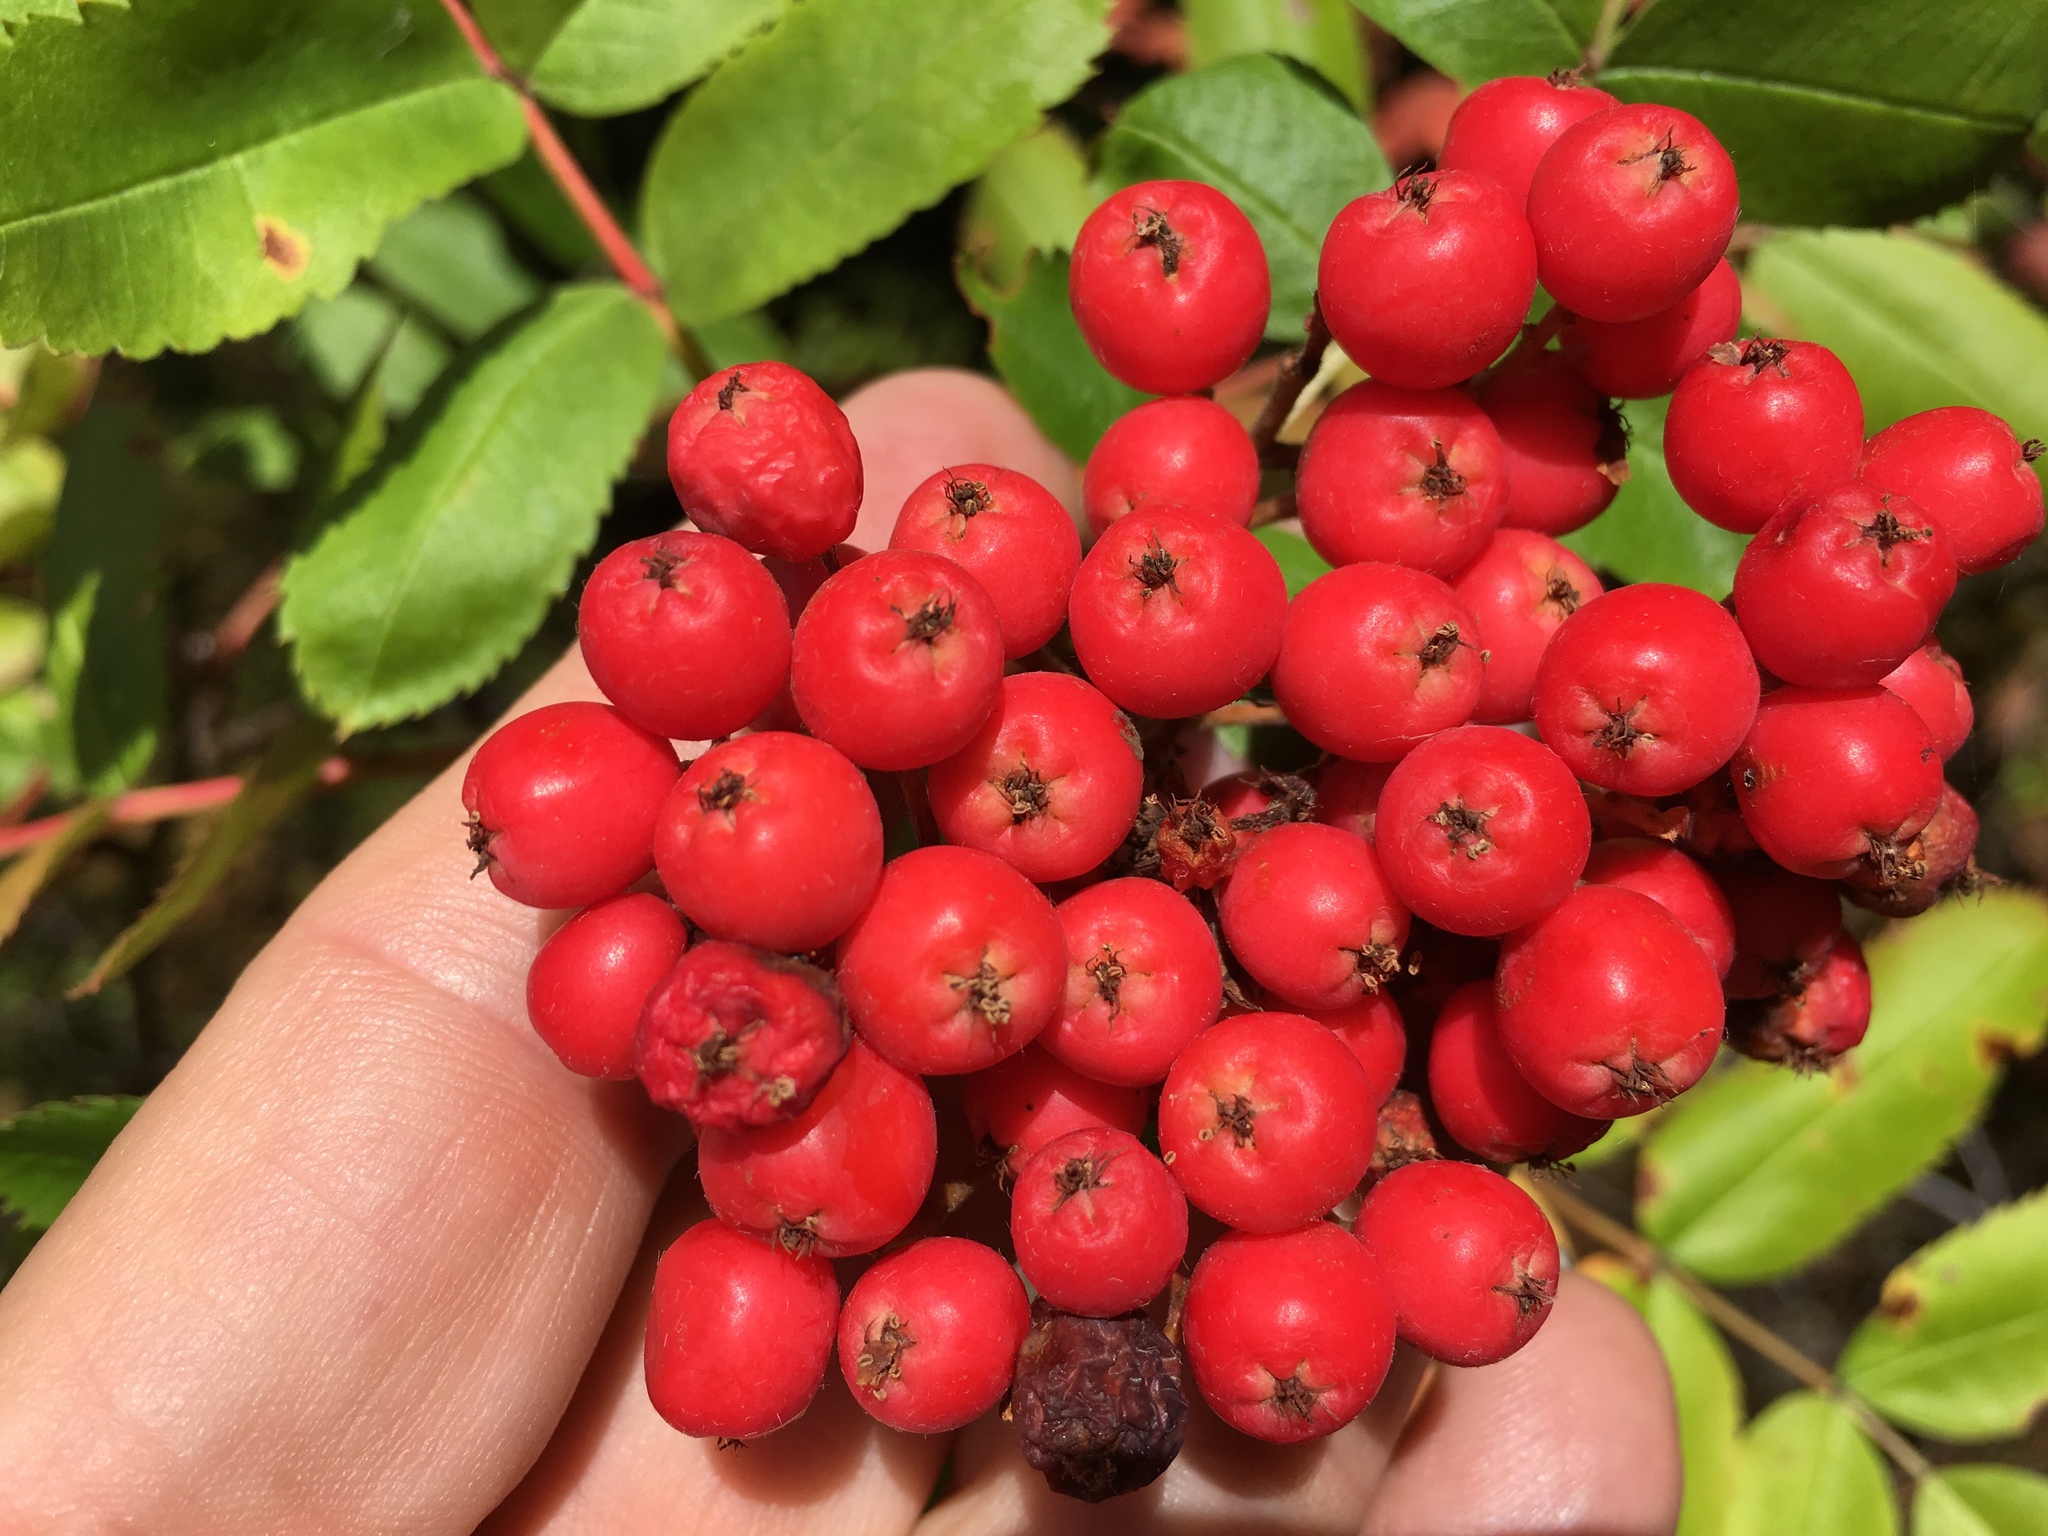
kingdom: Plantae
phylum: Tracheophyta
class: Magnoliopsida
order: Rosales
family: Rosaceae
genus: Sorbus
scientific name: Sorbus aucuparia
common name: Rowan
